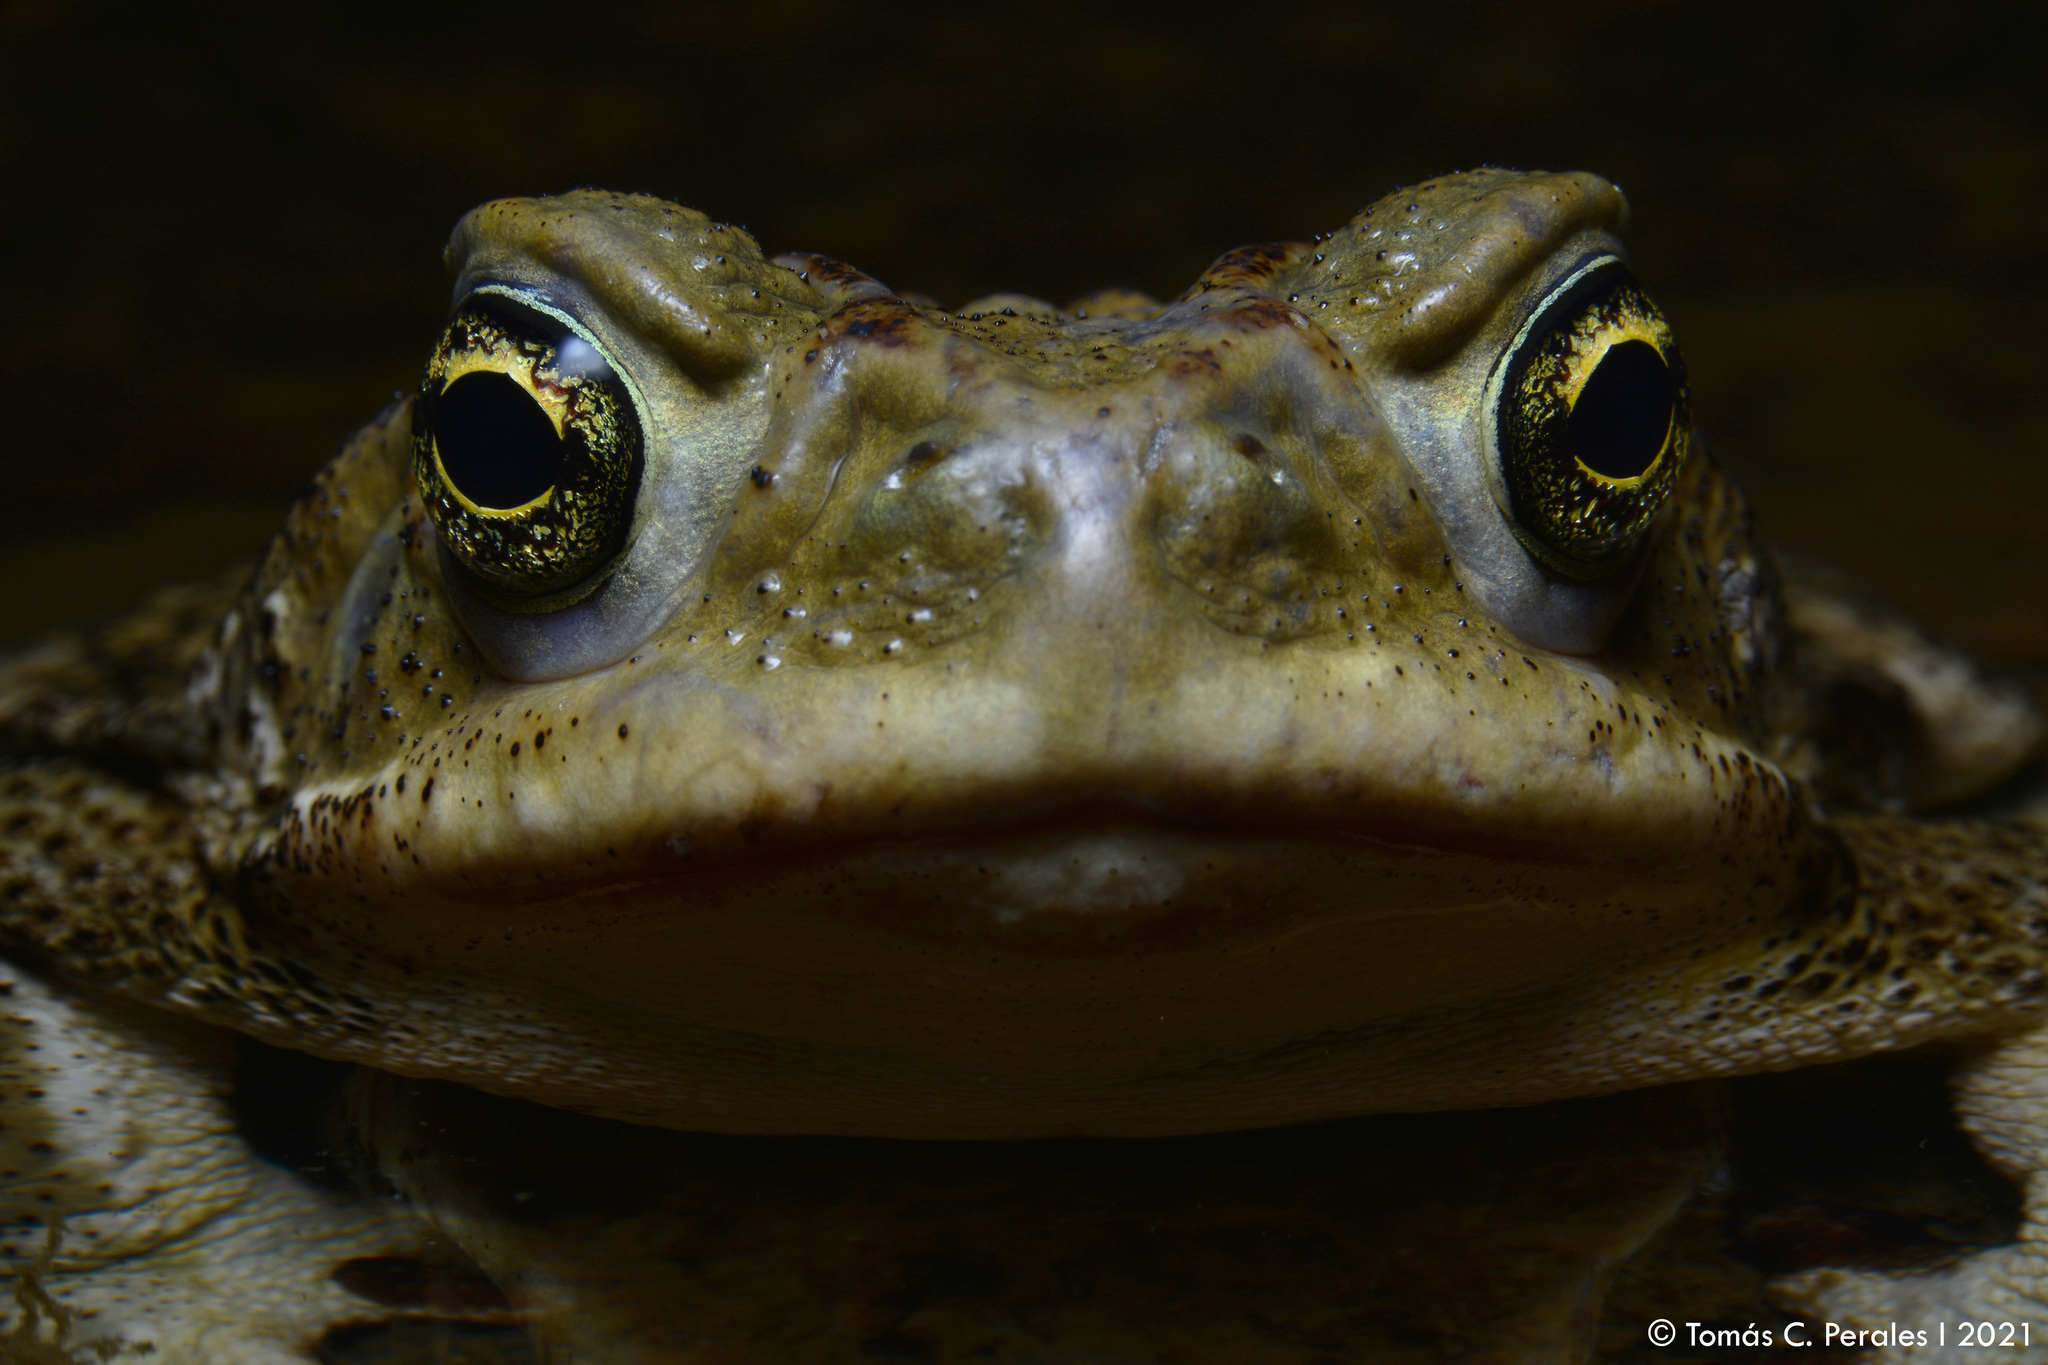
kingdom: Animalia
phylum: Chordata
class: Amphibia
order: Anura
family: Bufonidae
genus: Rhinella
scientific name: Rhinella arenarum
